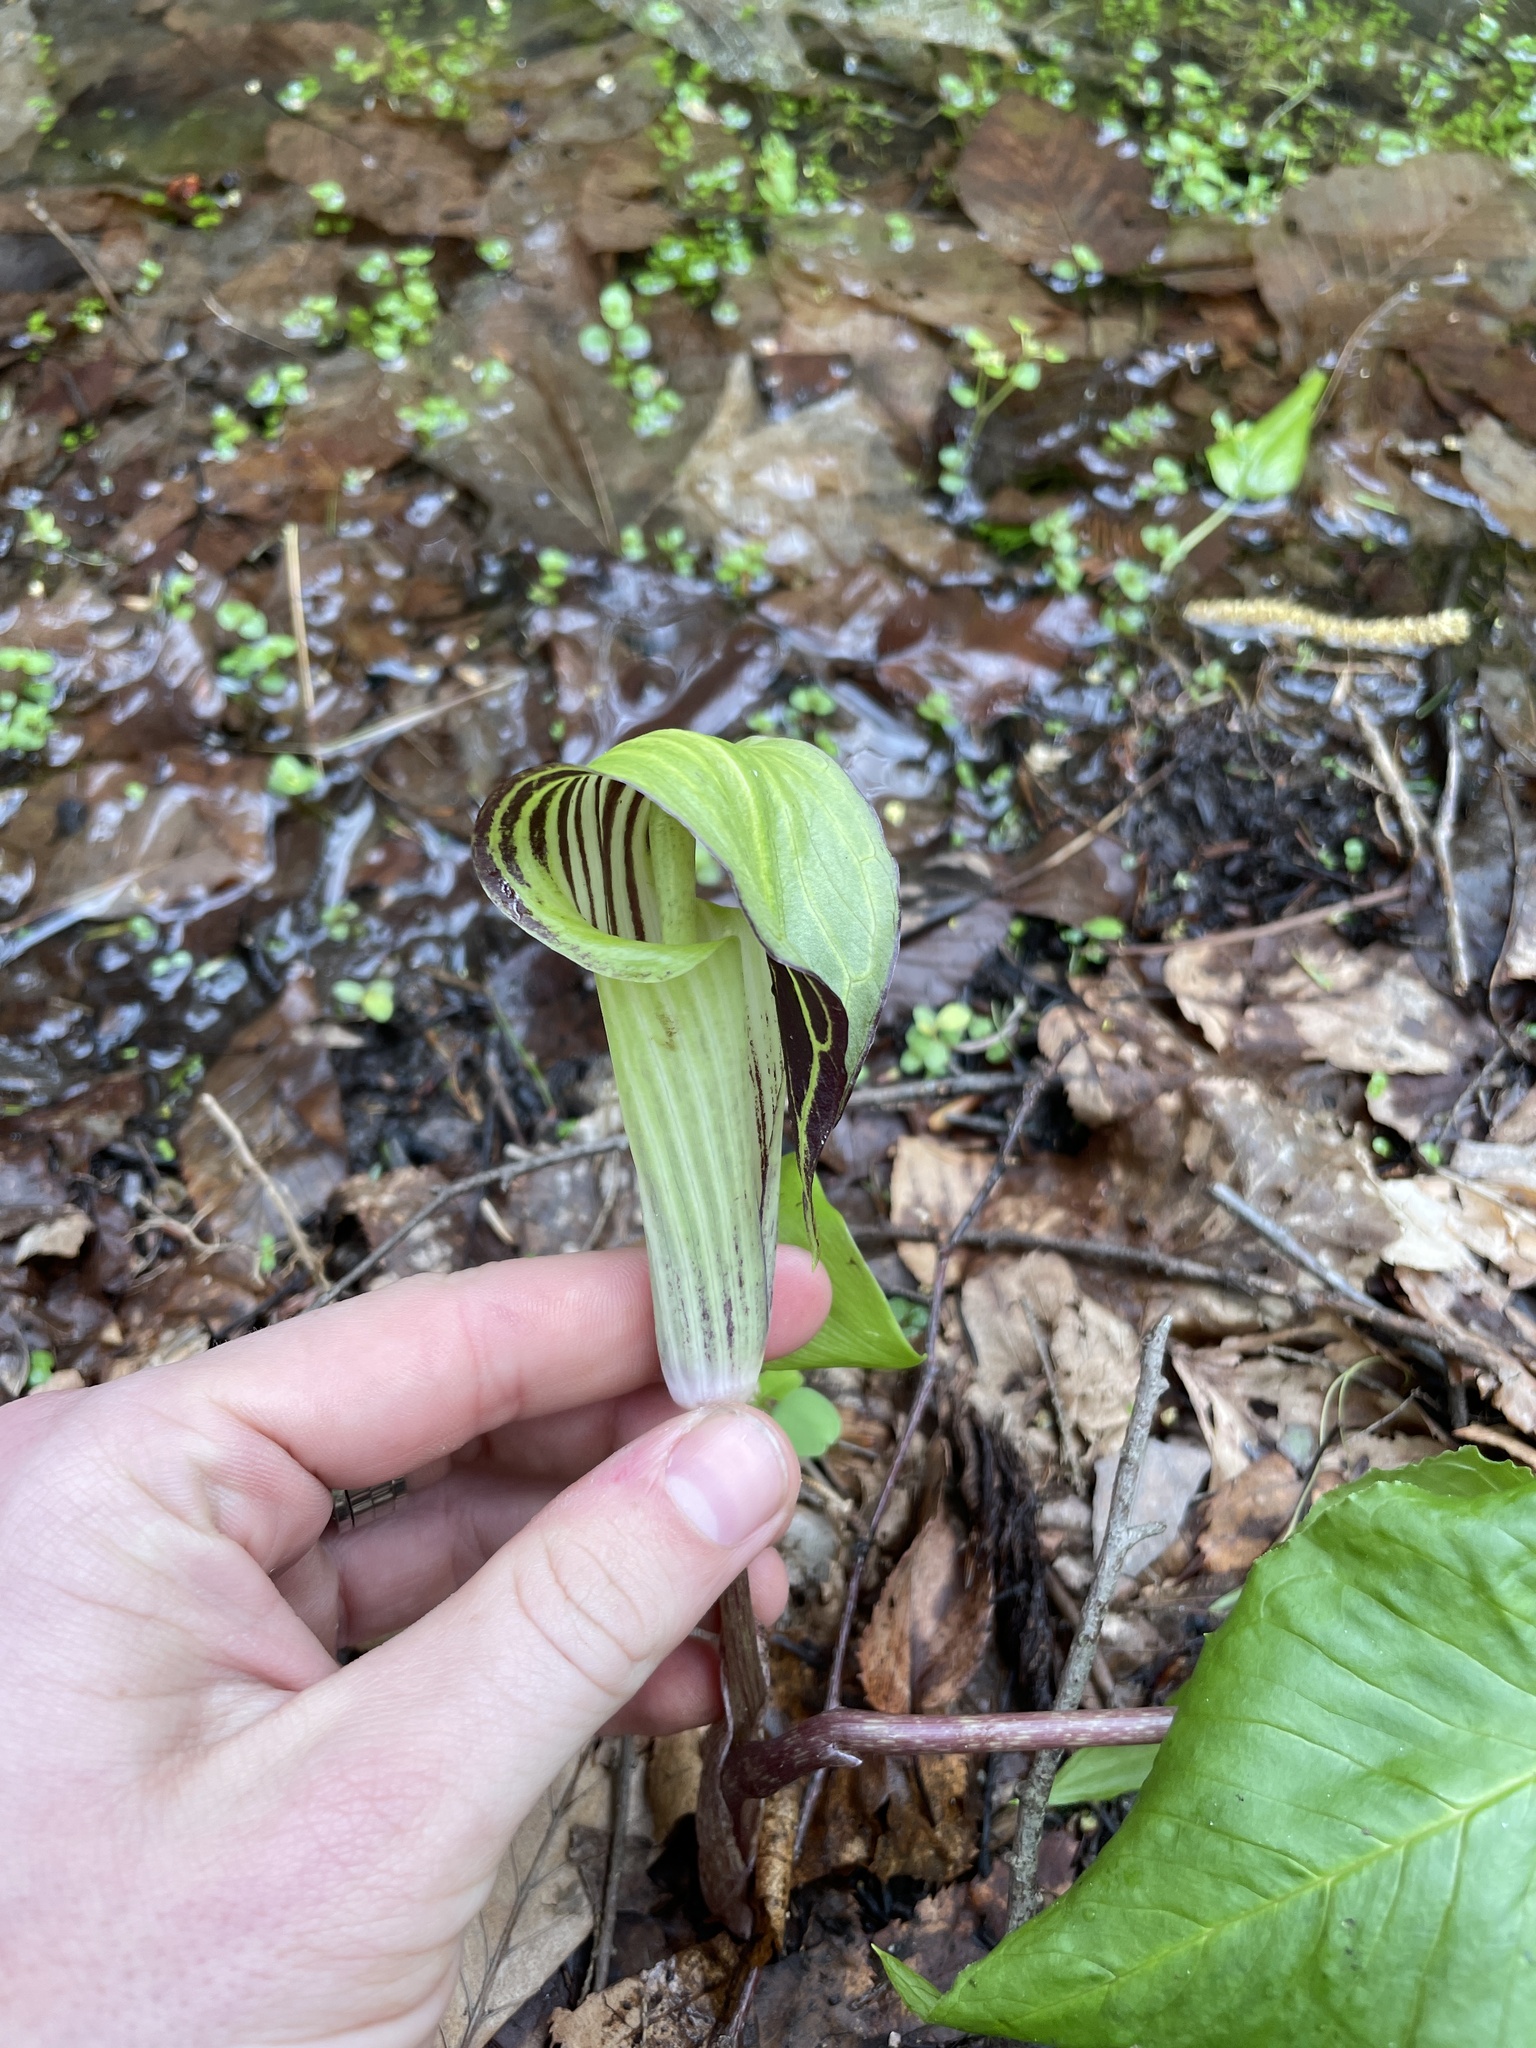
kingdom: Plantae
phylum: Tracheophyta
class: Liliopsida
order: Alismatales
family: Araceae
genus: Arisaema
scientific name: Arisaema triphyllum
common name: Jack-in-the-pulpit
